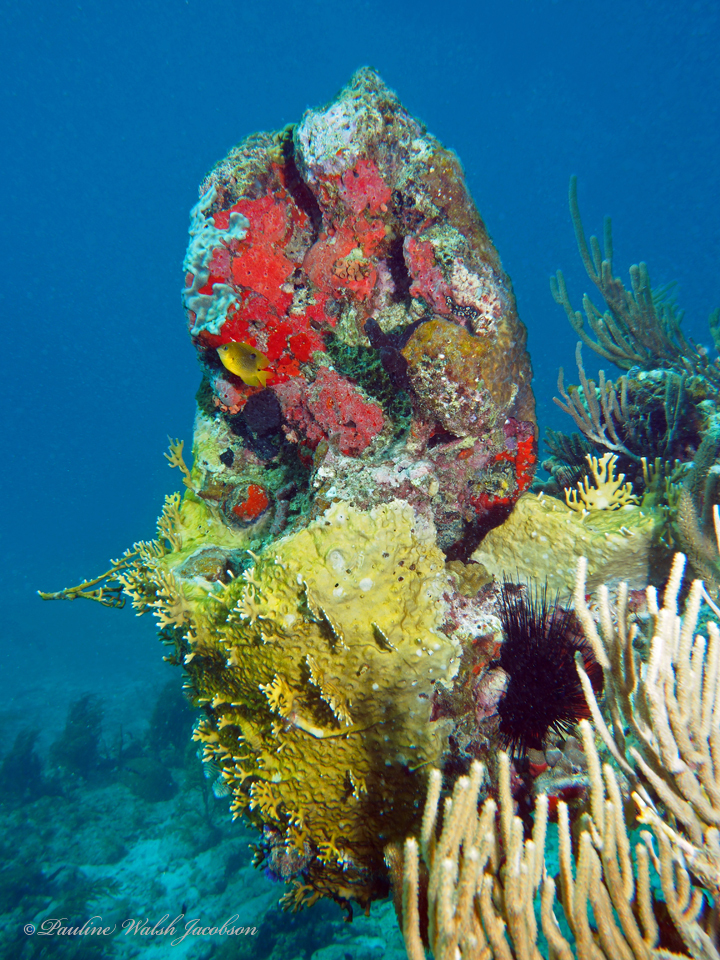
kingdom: Animalia
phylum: Chordata
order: Perciformes
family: Pomacentridae
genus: Stegastes
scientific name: Stegastes planifrons
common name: Threespot damselfish
